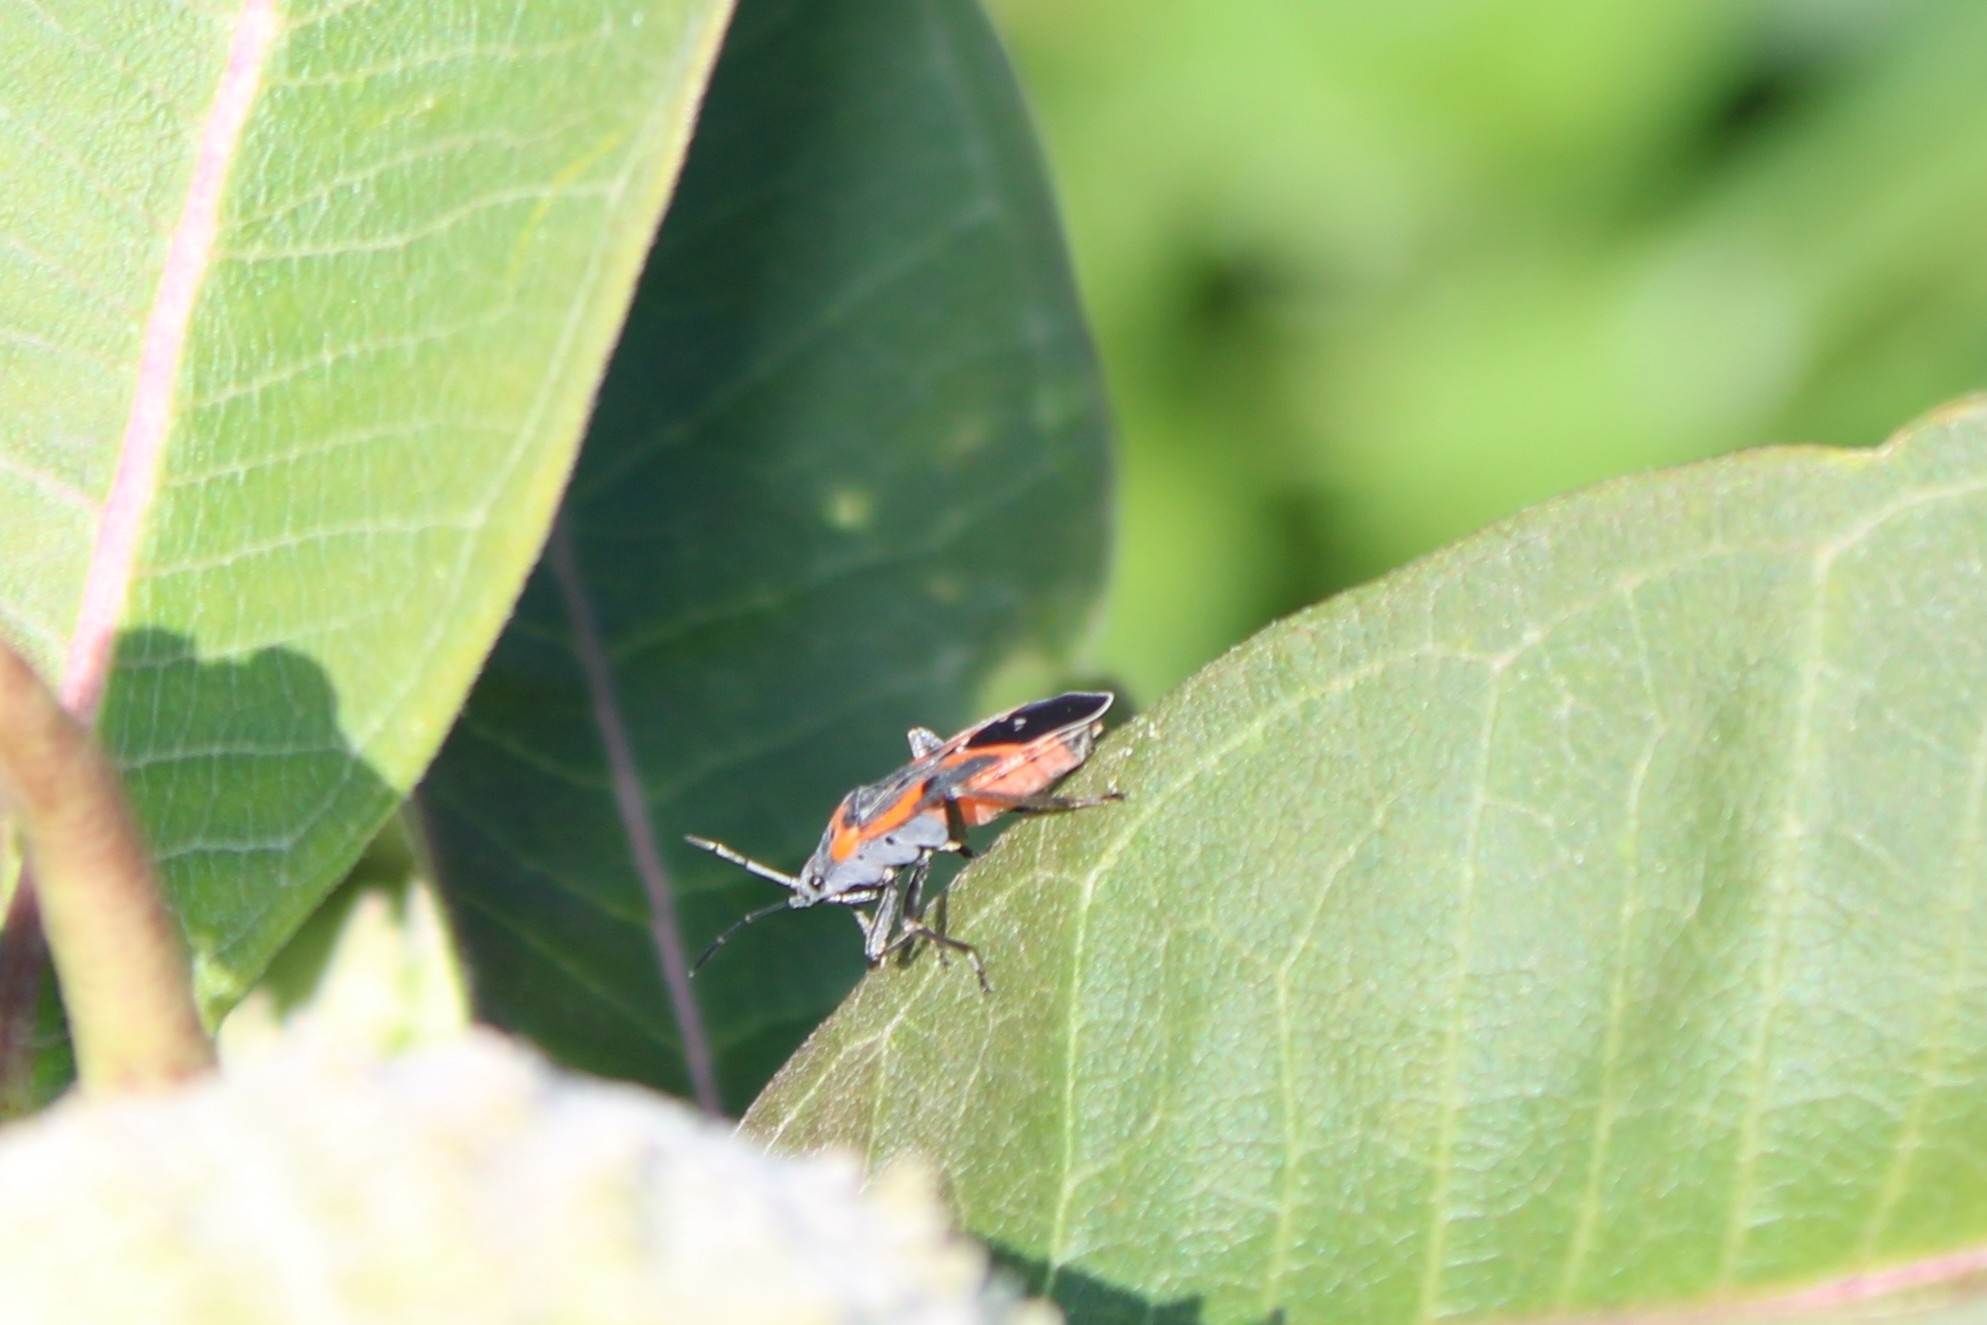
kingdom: Animalia
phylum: Arthropoda
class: Insecta
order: Hemiptera
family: Lygaeidae
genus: Lygaeus
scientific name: Lygaeus kalmii
